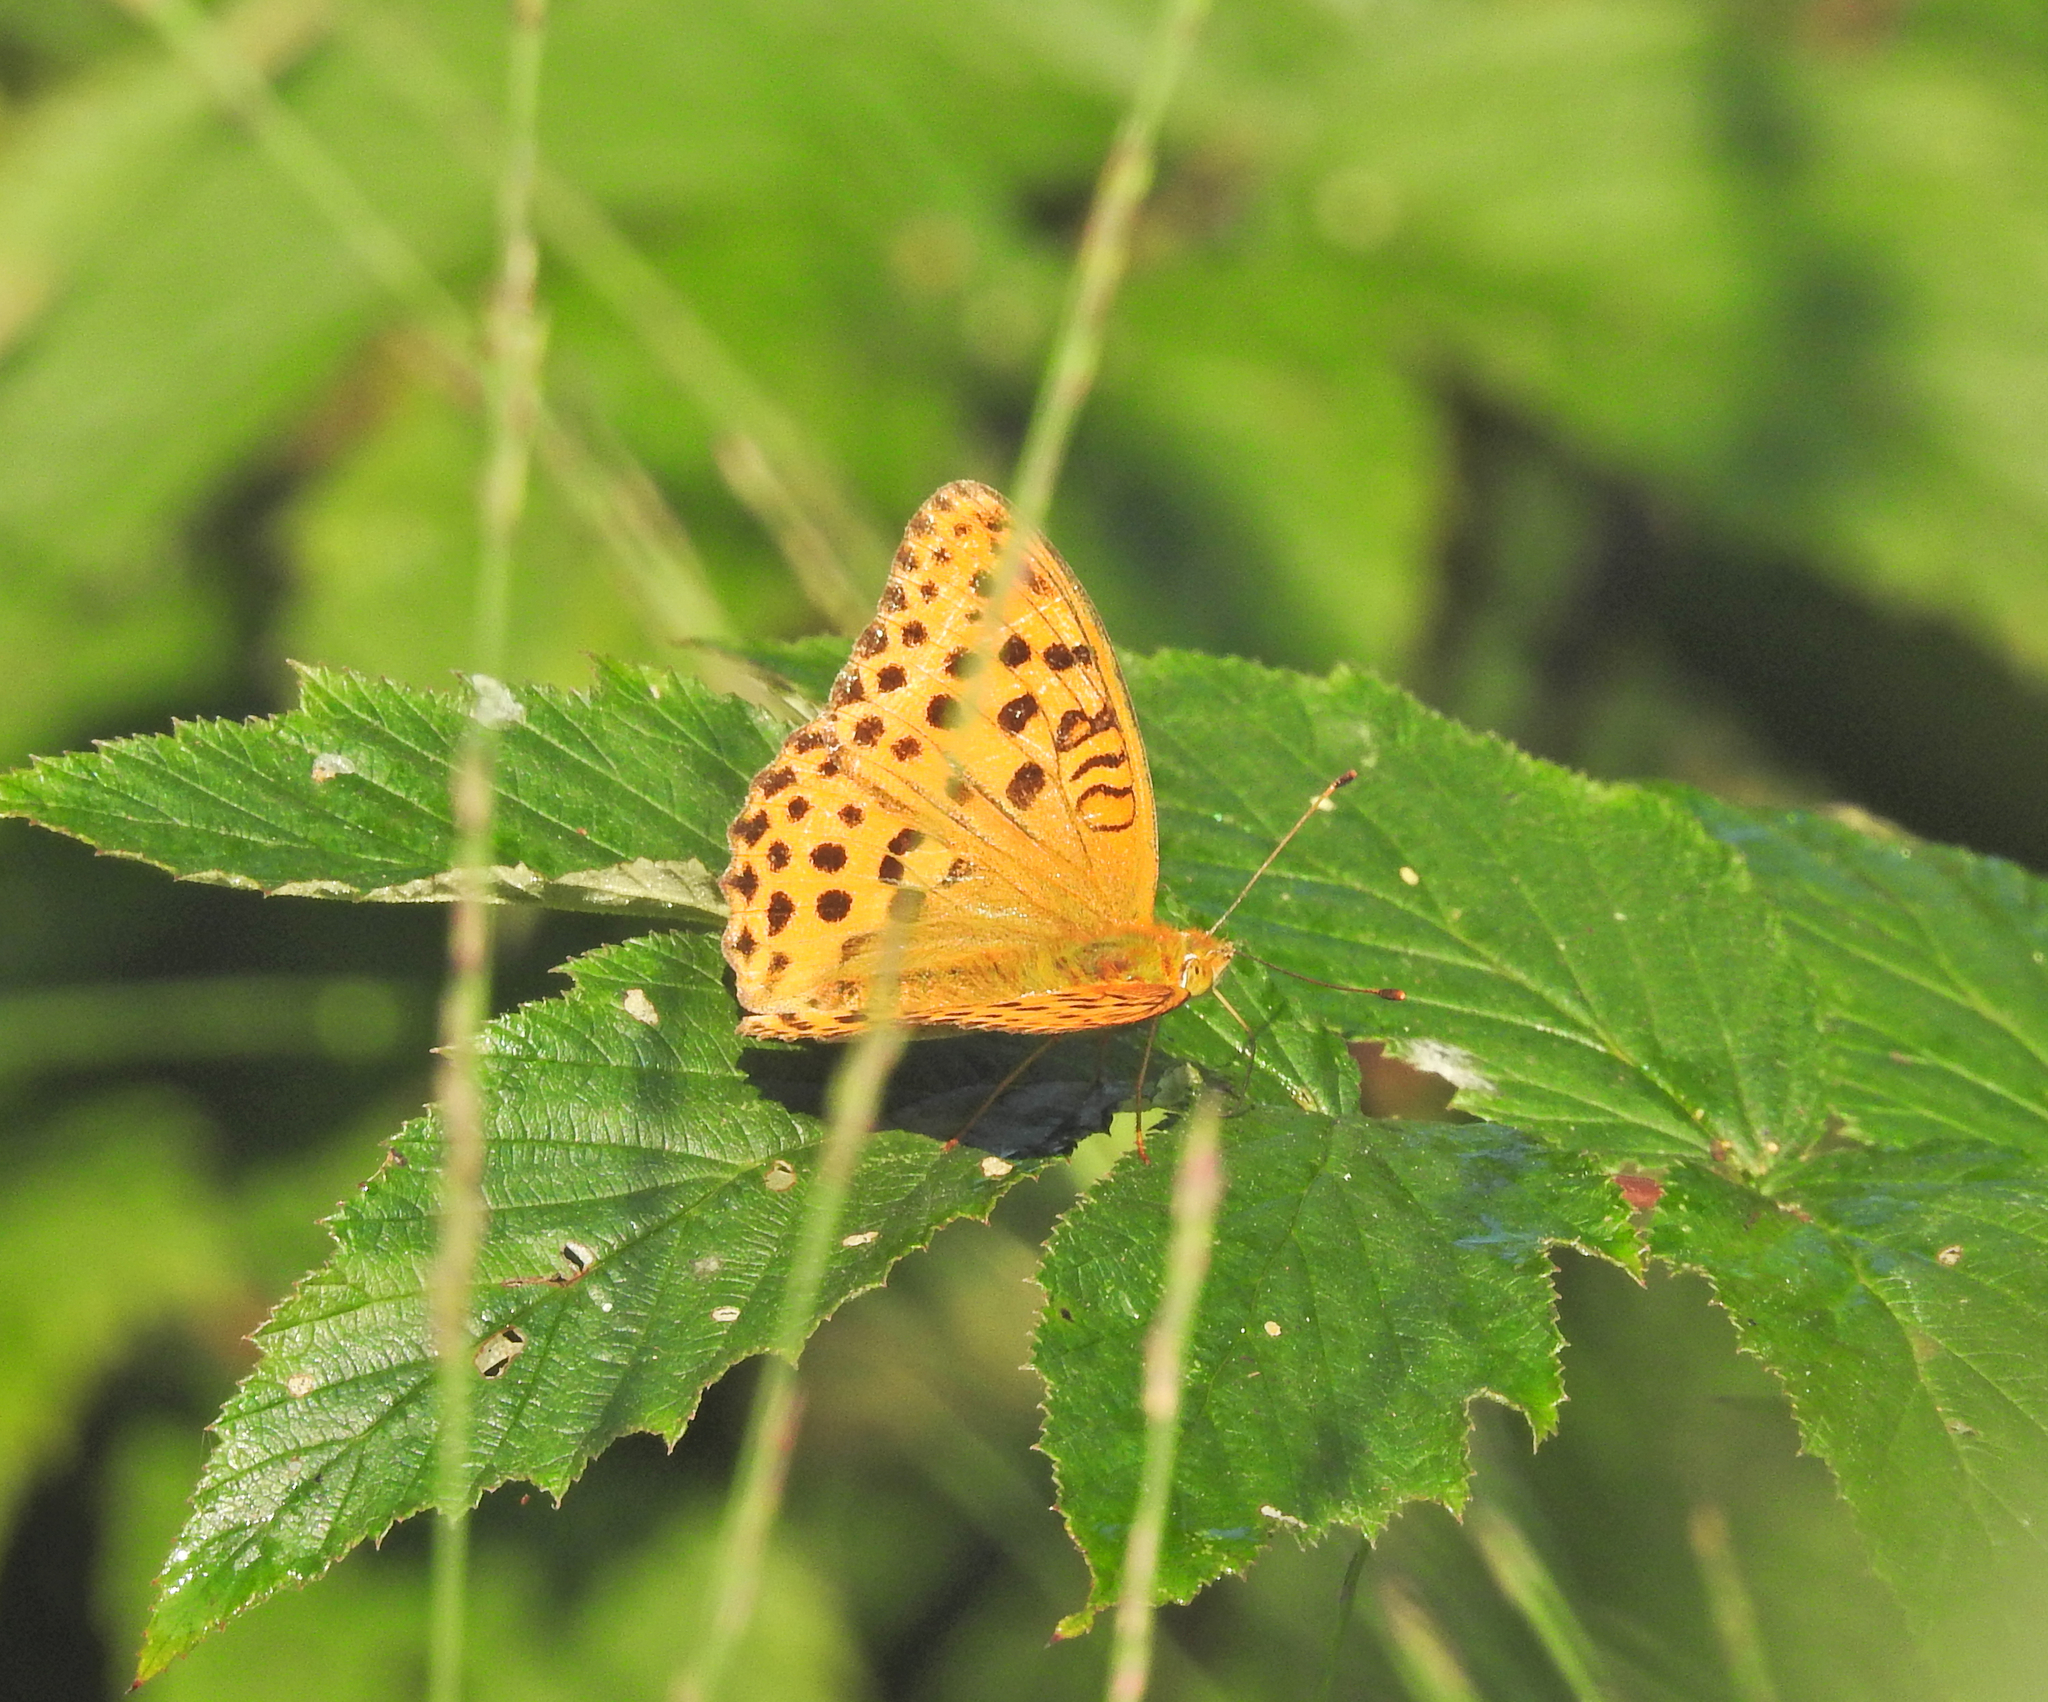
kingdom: Animalia
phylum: Arthropoda
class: Insecta
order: Lepidoptera
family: Nymphalidae
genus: Argyronome
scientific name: Argyronome laodice
